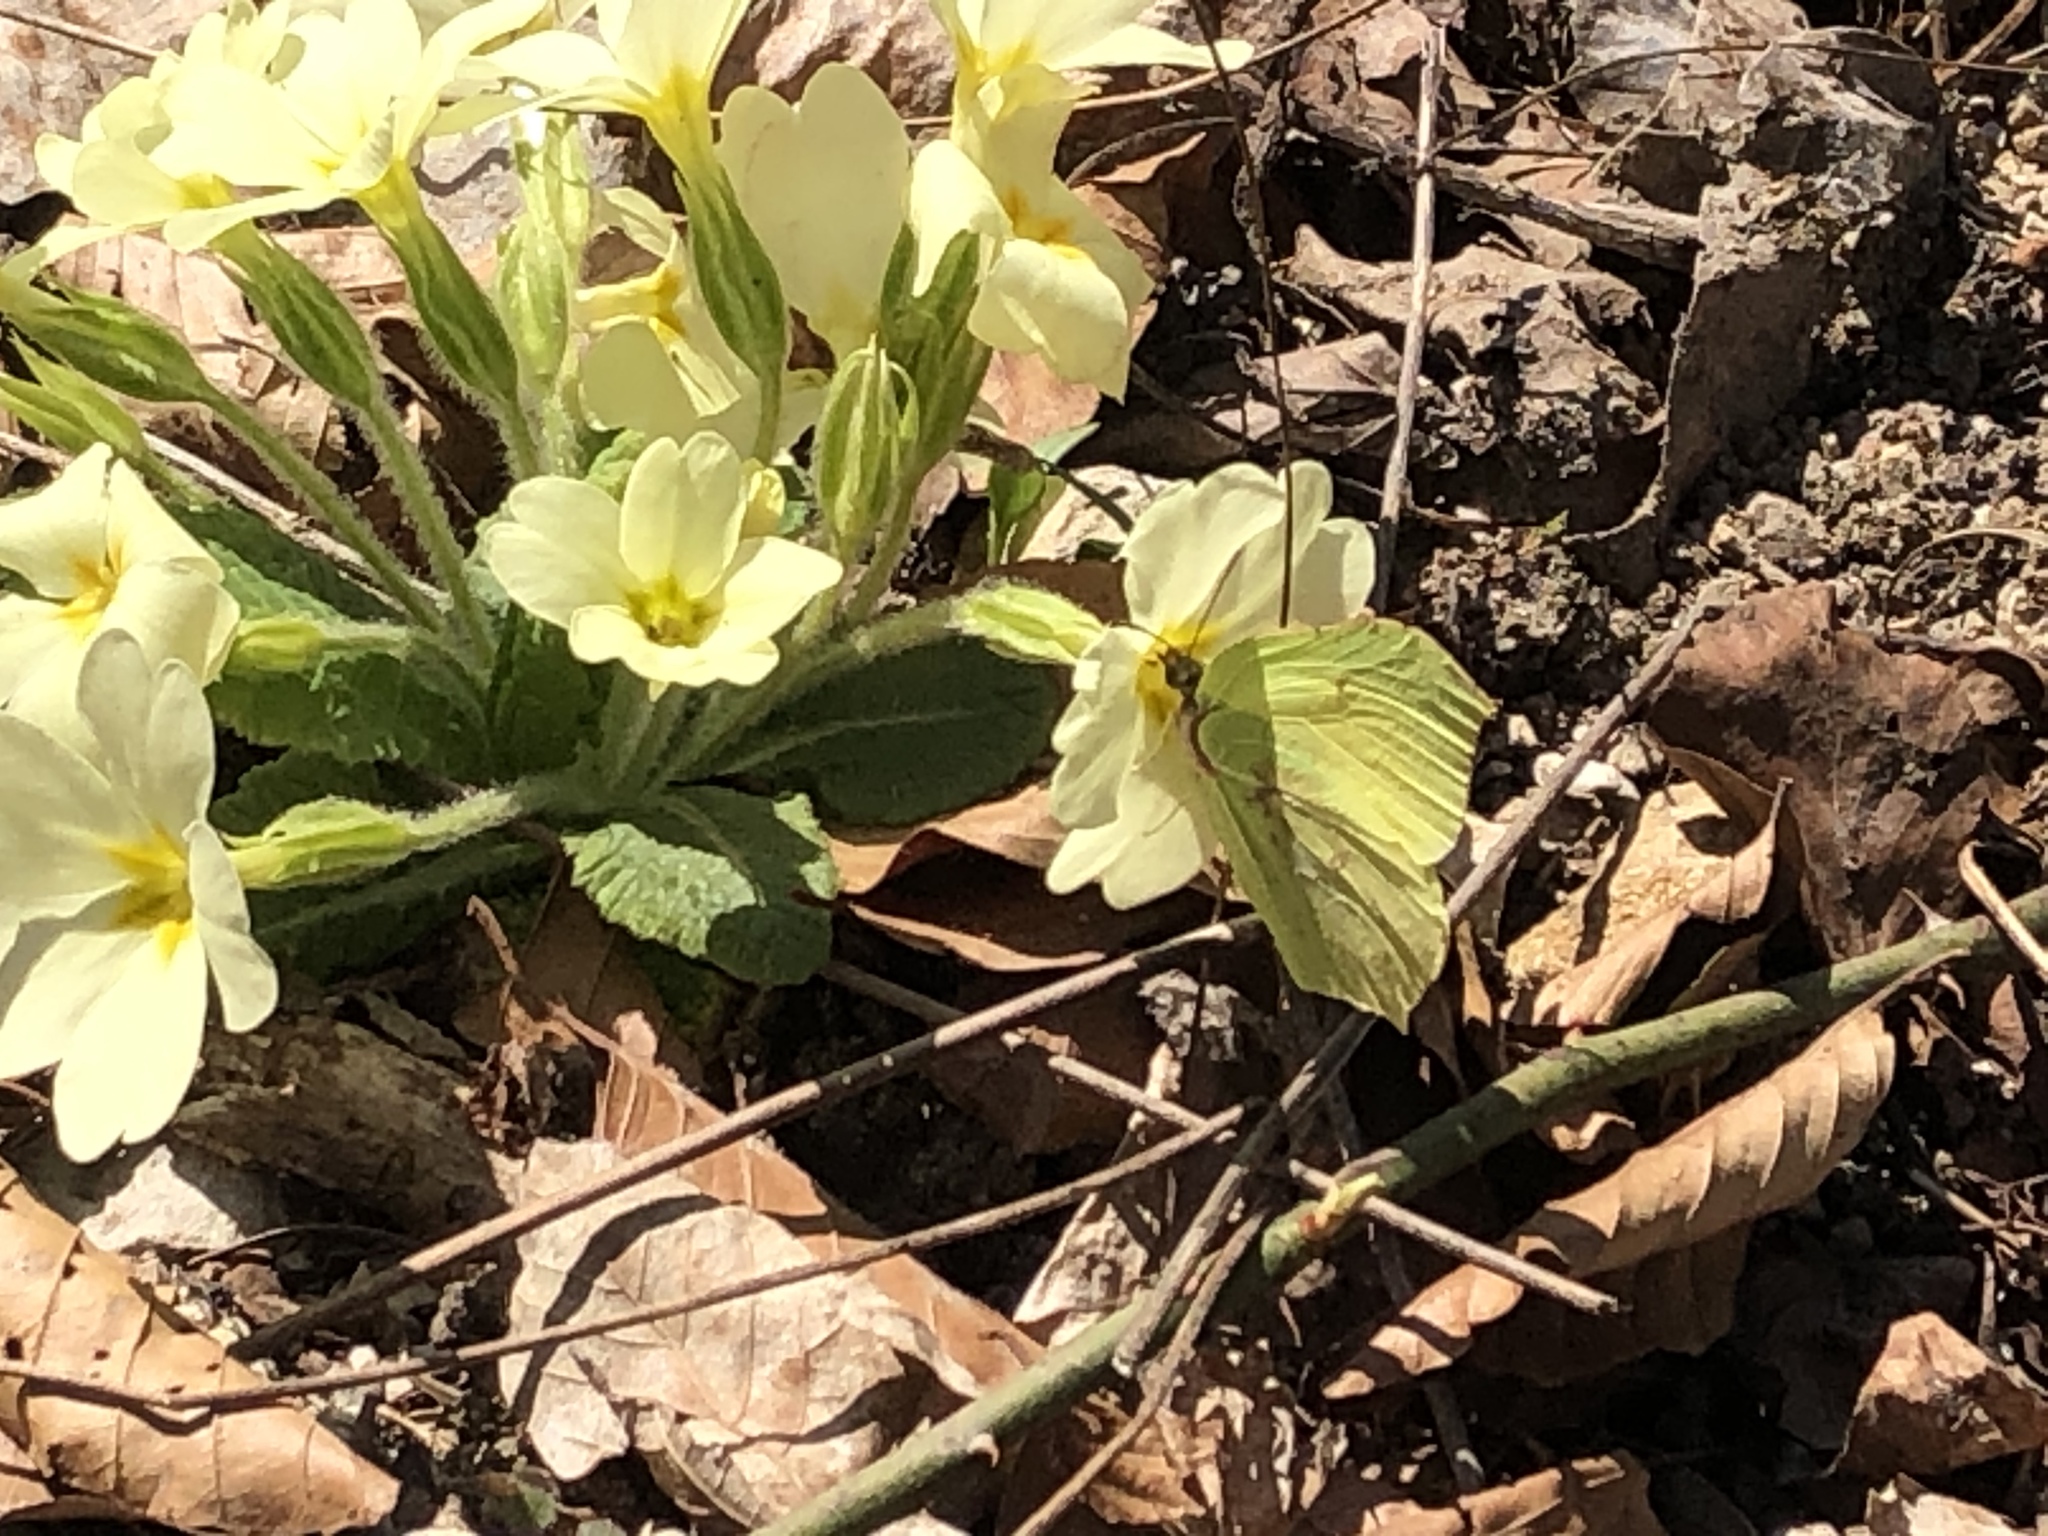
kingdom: Animalia
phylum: Arthropoda
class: Insecta
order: Lepidoptera
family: Pieridae
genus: Gonepteryx
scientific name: Gonepteryx rhamni
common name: Brimstone
